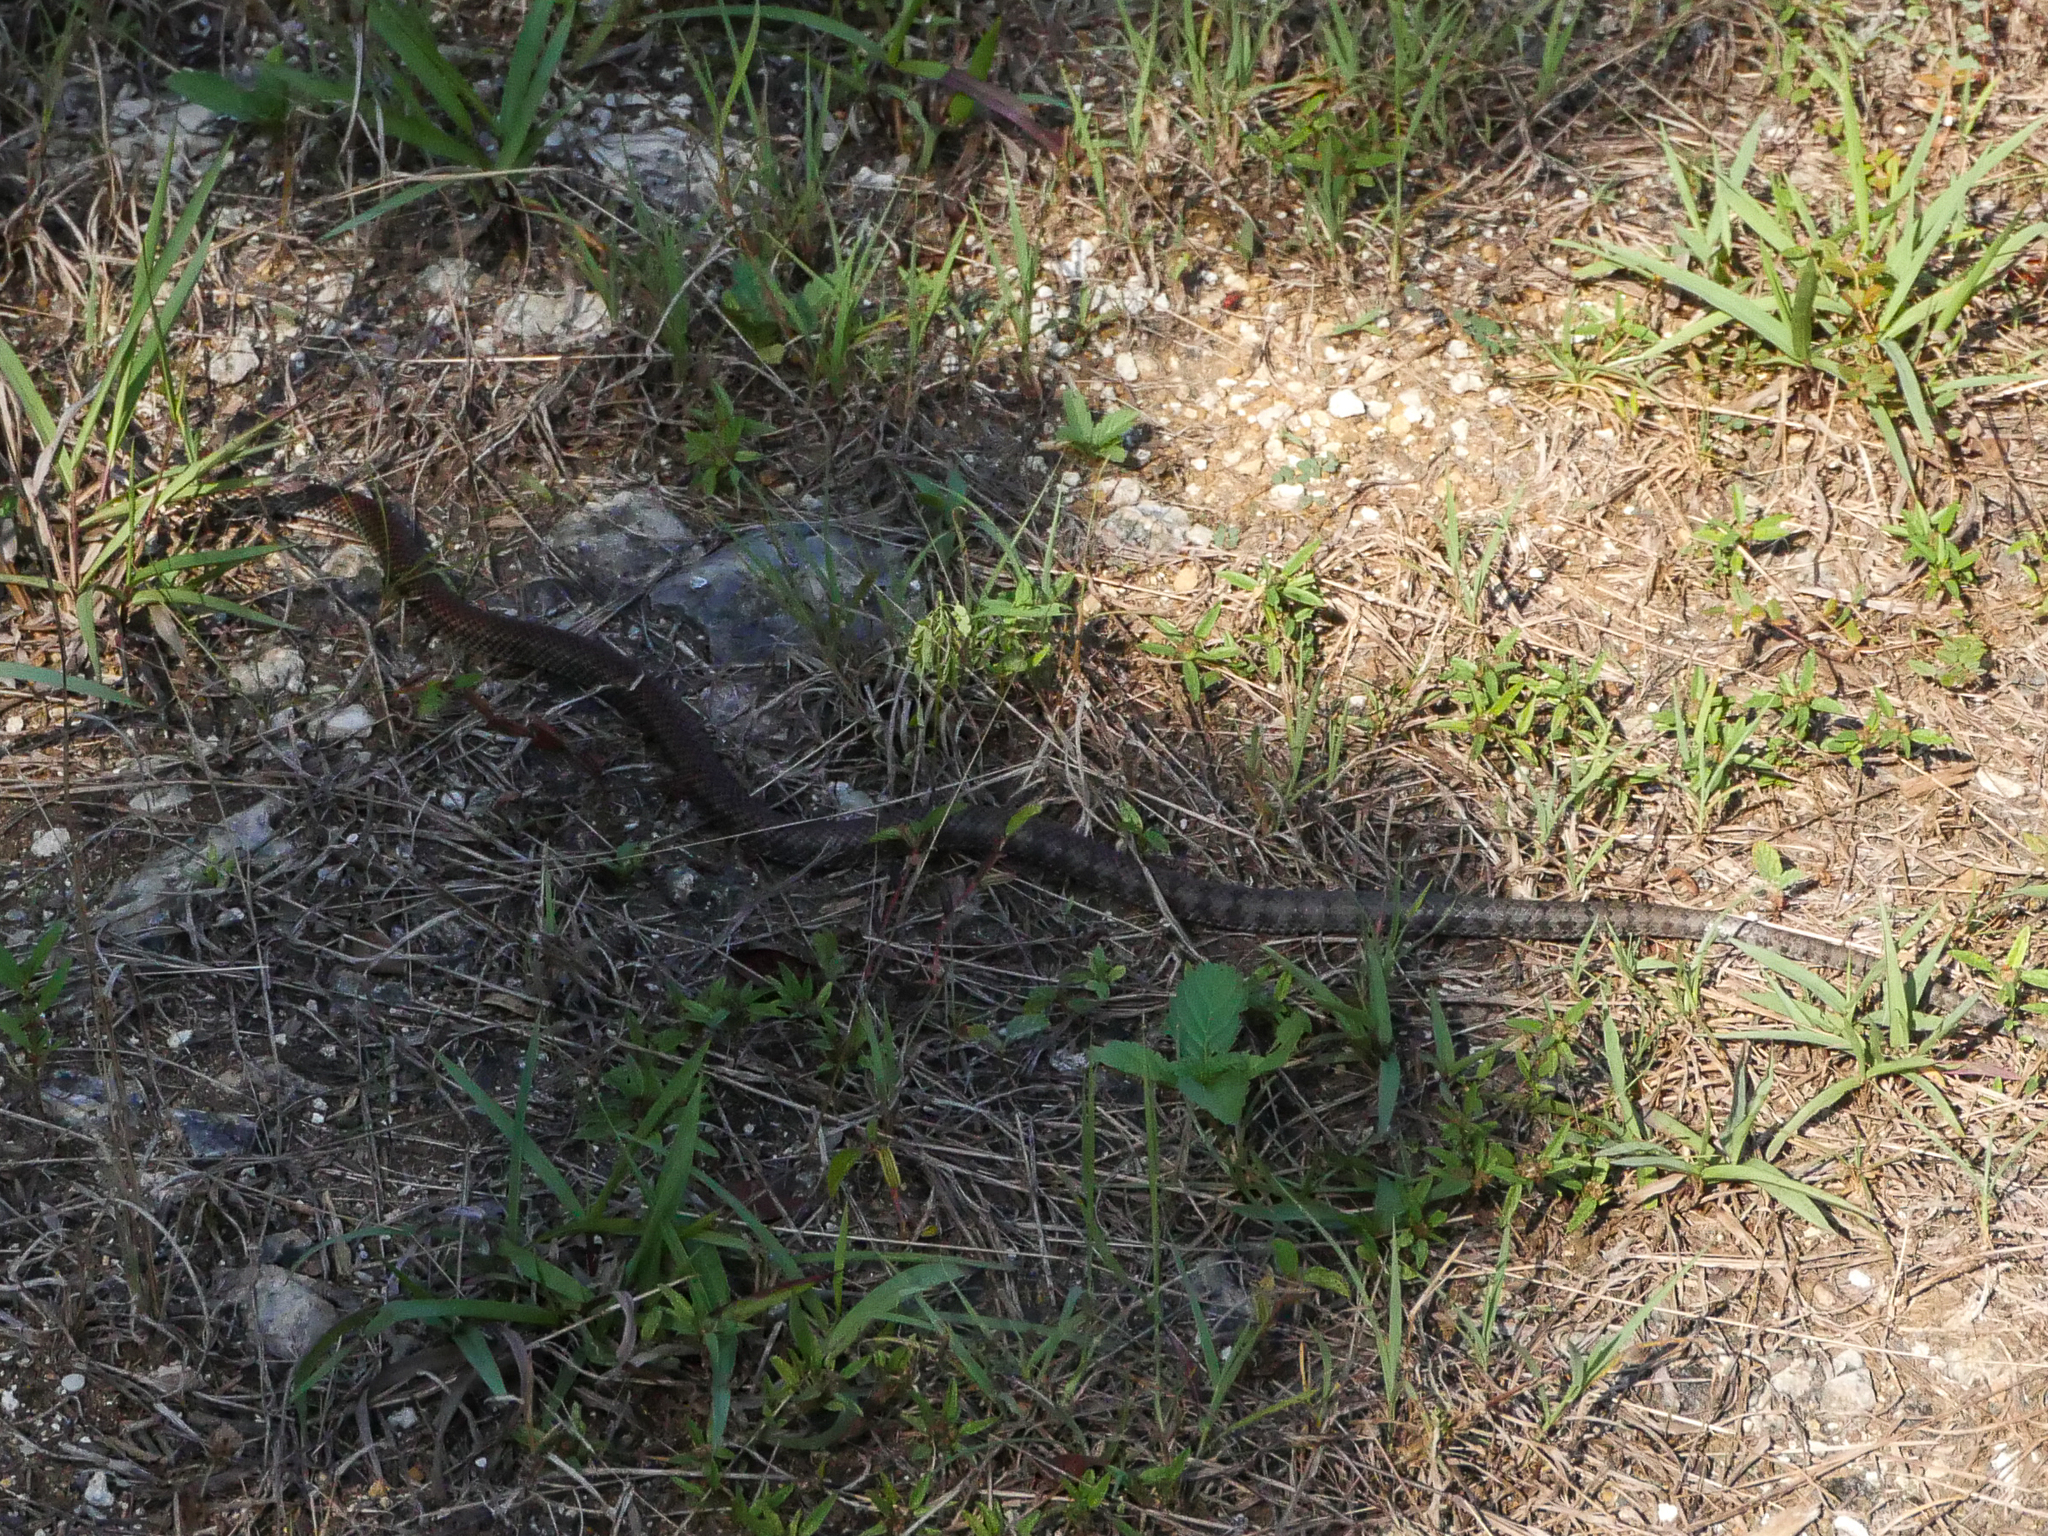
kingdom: Animalia
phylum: Chordata
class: Squamata
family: Colubridae
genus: Cubophis
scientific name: Cubophis caymanus
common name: Black snake
